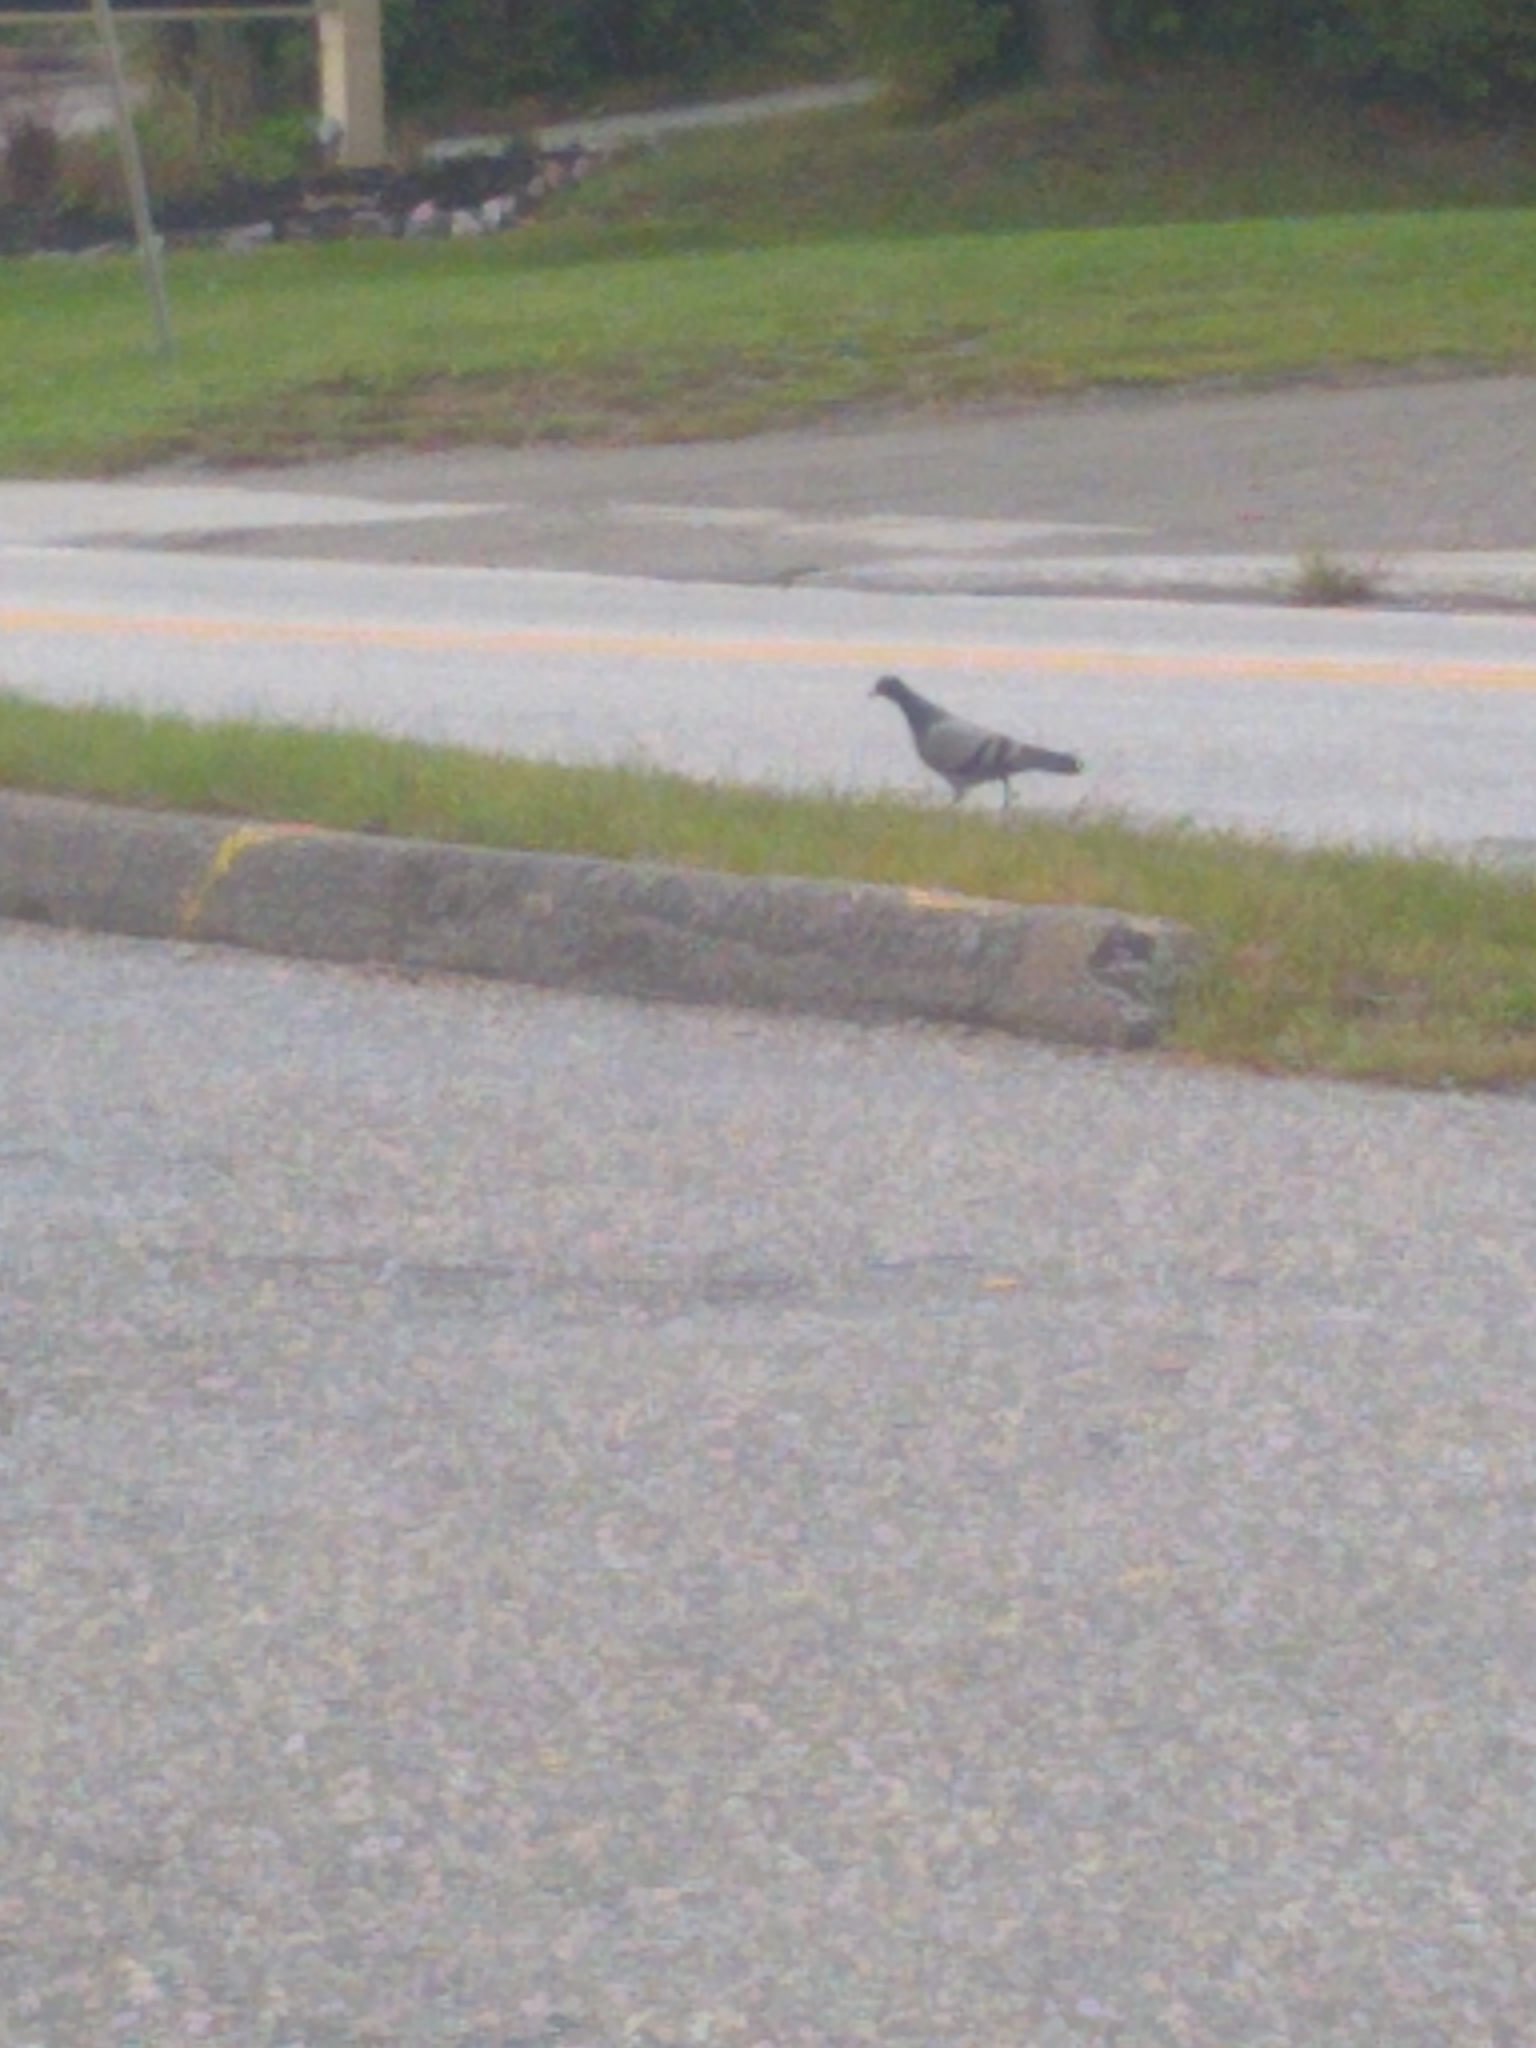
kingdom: Animalia
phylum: Chordata
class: Aves
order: Columbiformes
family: Columbidae
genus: Columba
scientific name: Columba livia
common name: Rock pigeon
